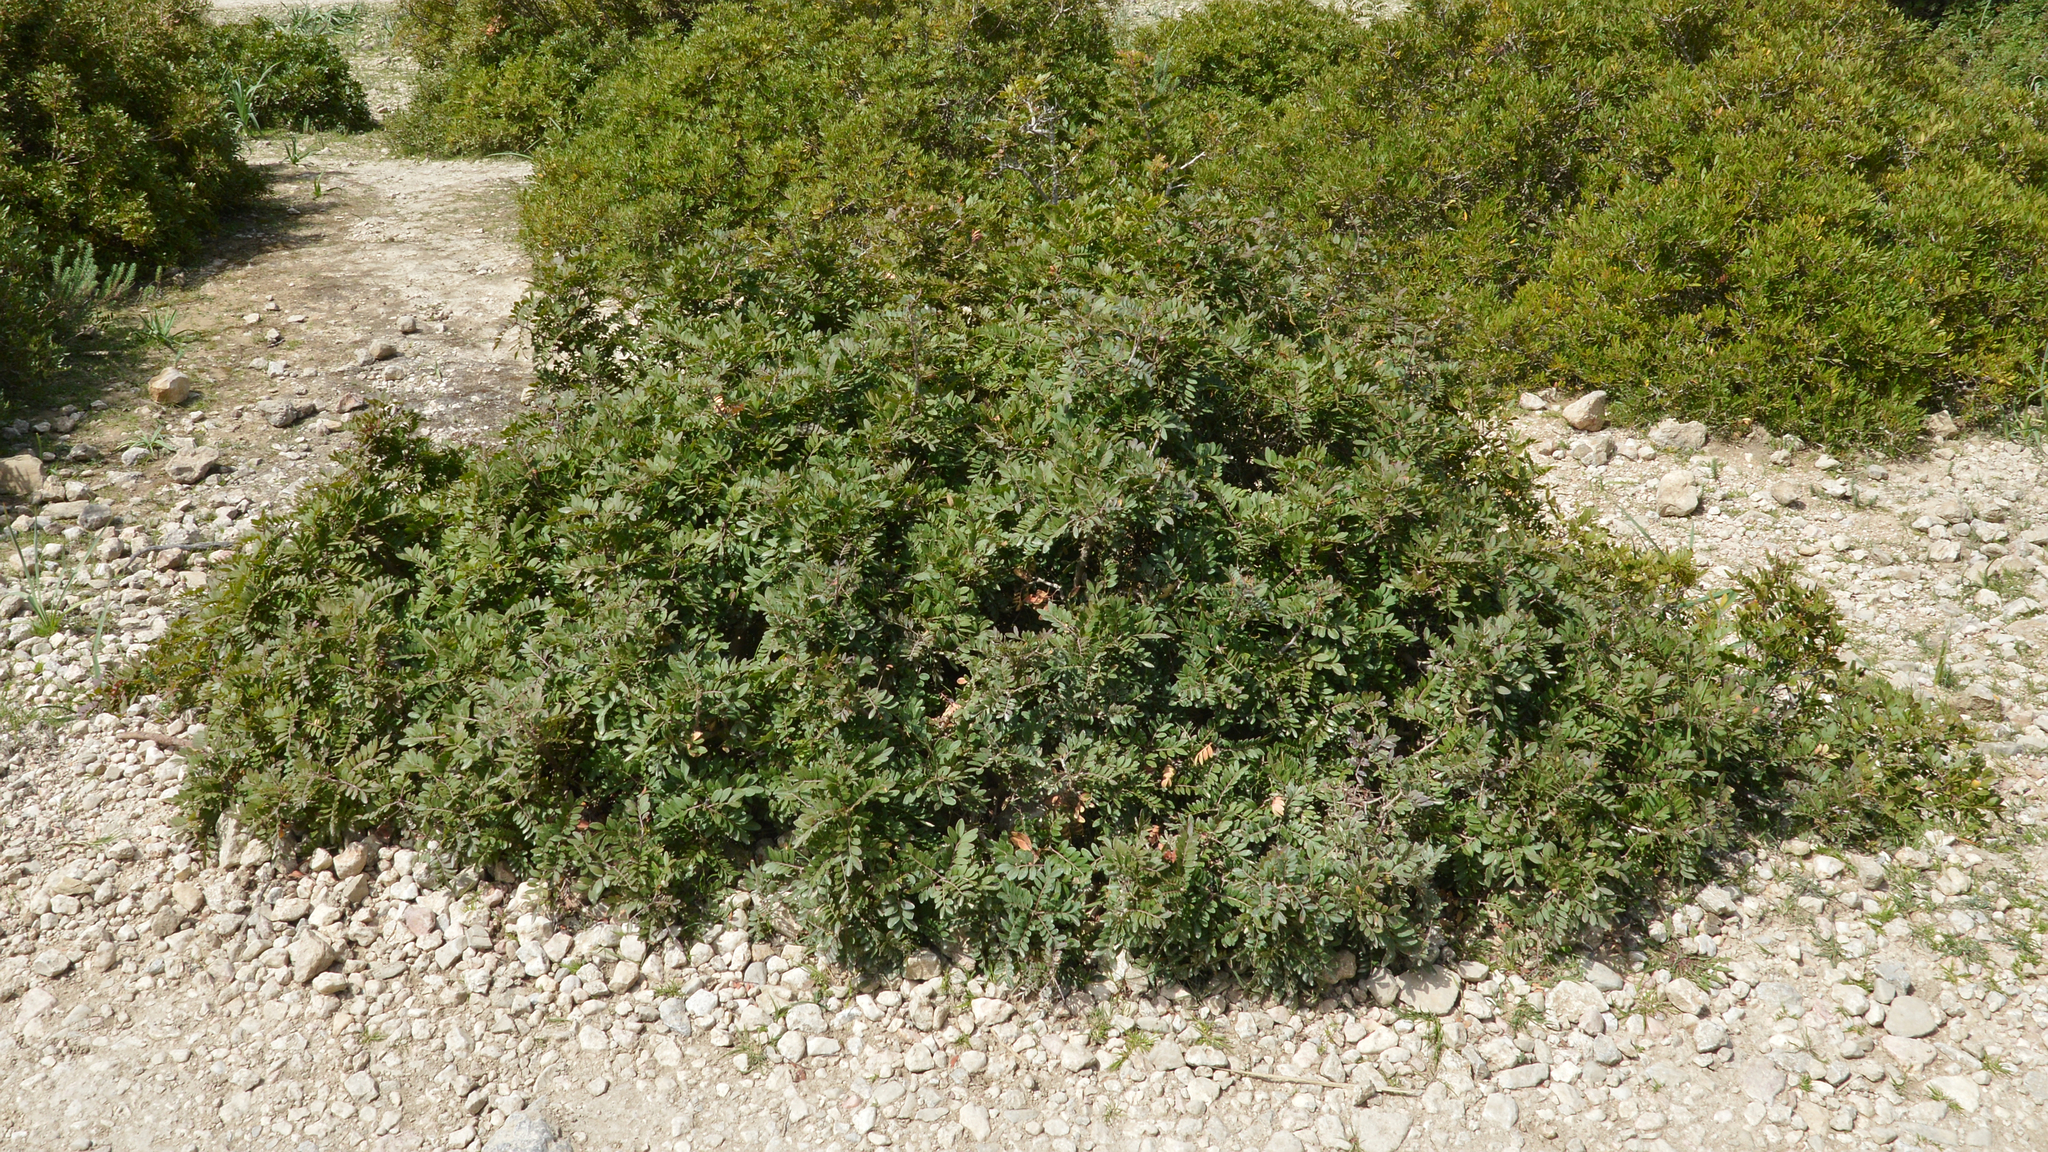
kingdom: Plantae
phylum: Tracheophyta
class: Magnoliopsida
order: Sapindales
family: Anacardiaceae
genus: Pistacia
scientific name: Pistacia lentiscus
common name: Lentisk
